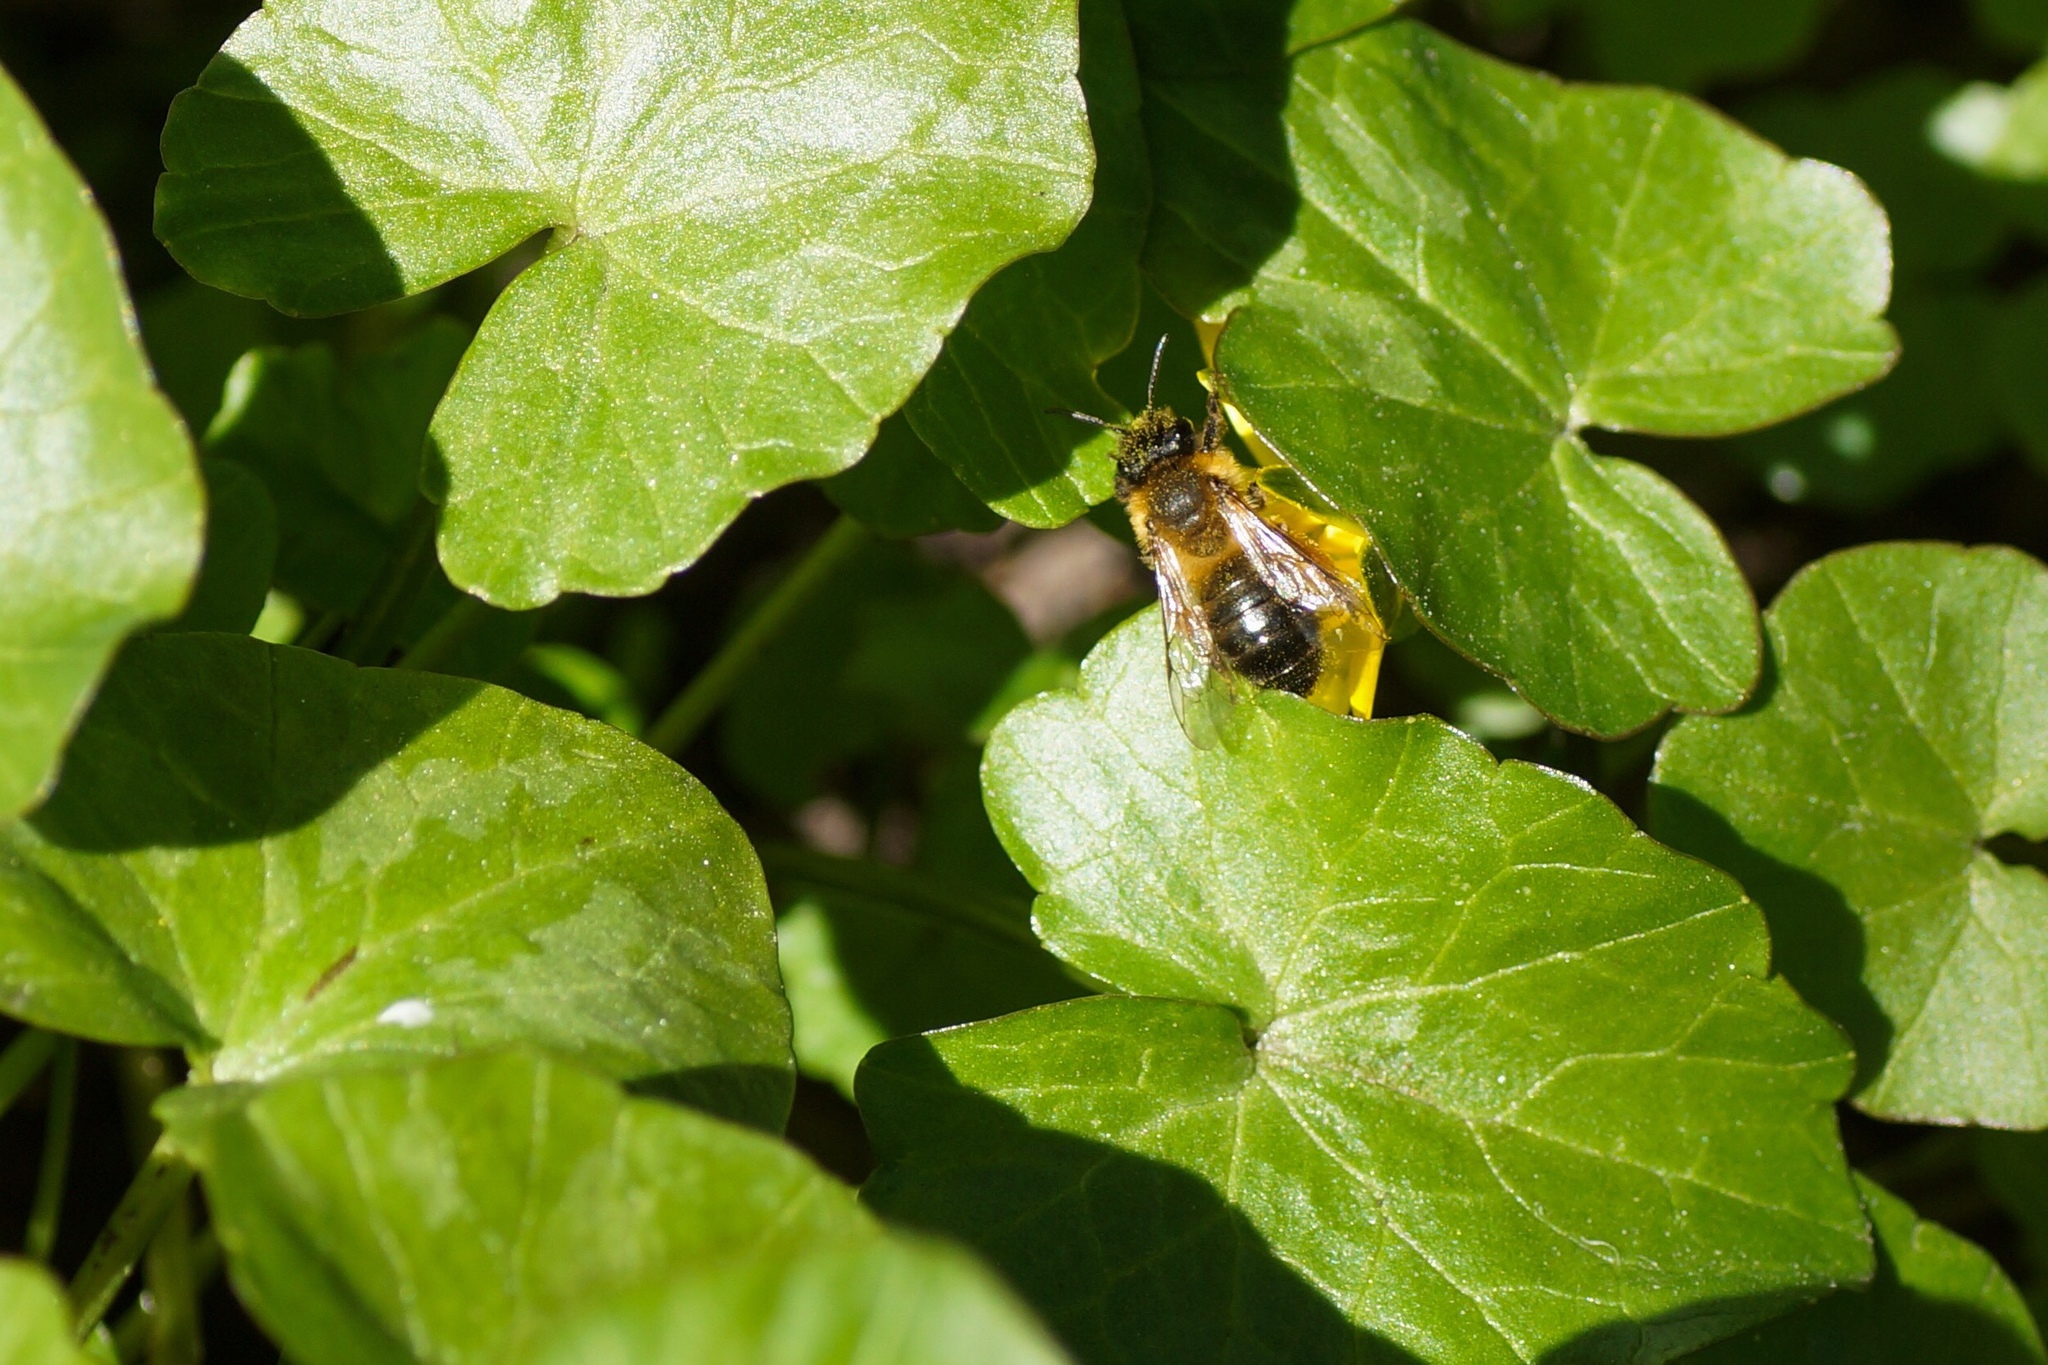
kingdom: Animalia
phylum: Arthropoda
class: Insecta
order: Hymenoptera
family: Andrenidae
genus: Andrena
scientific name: Andrena nigroaenea
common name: Buffish mining bee
